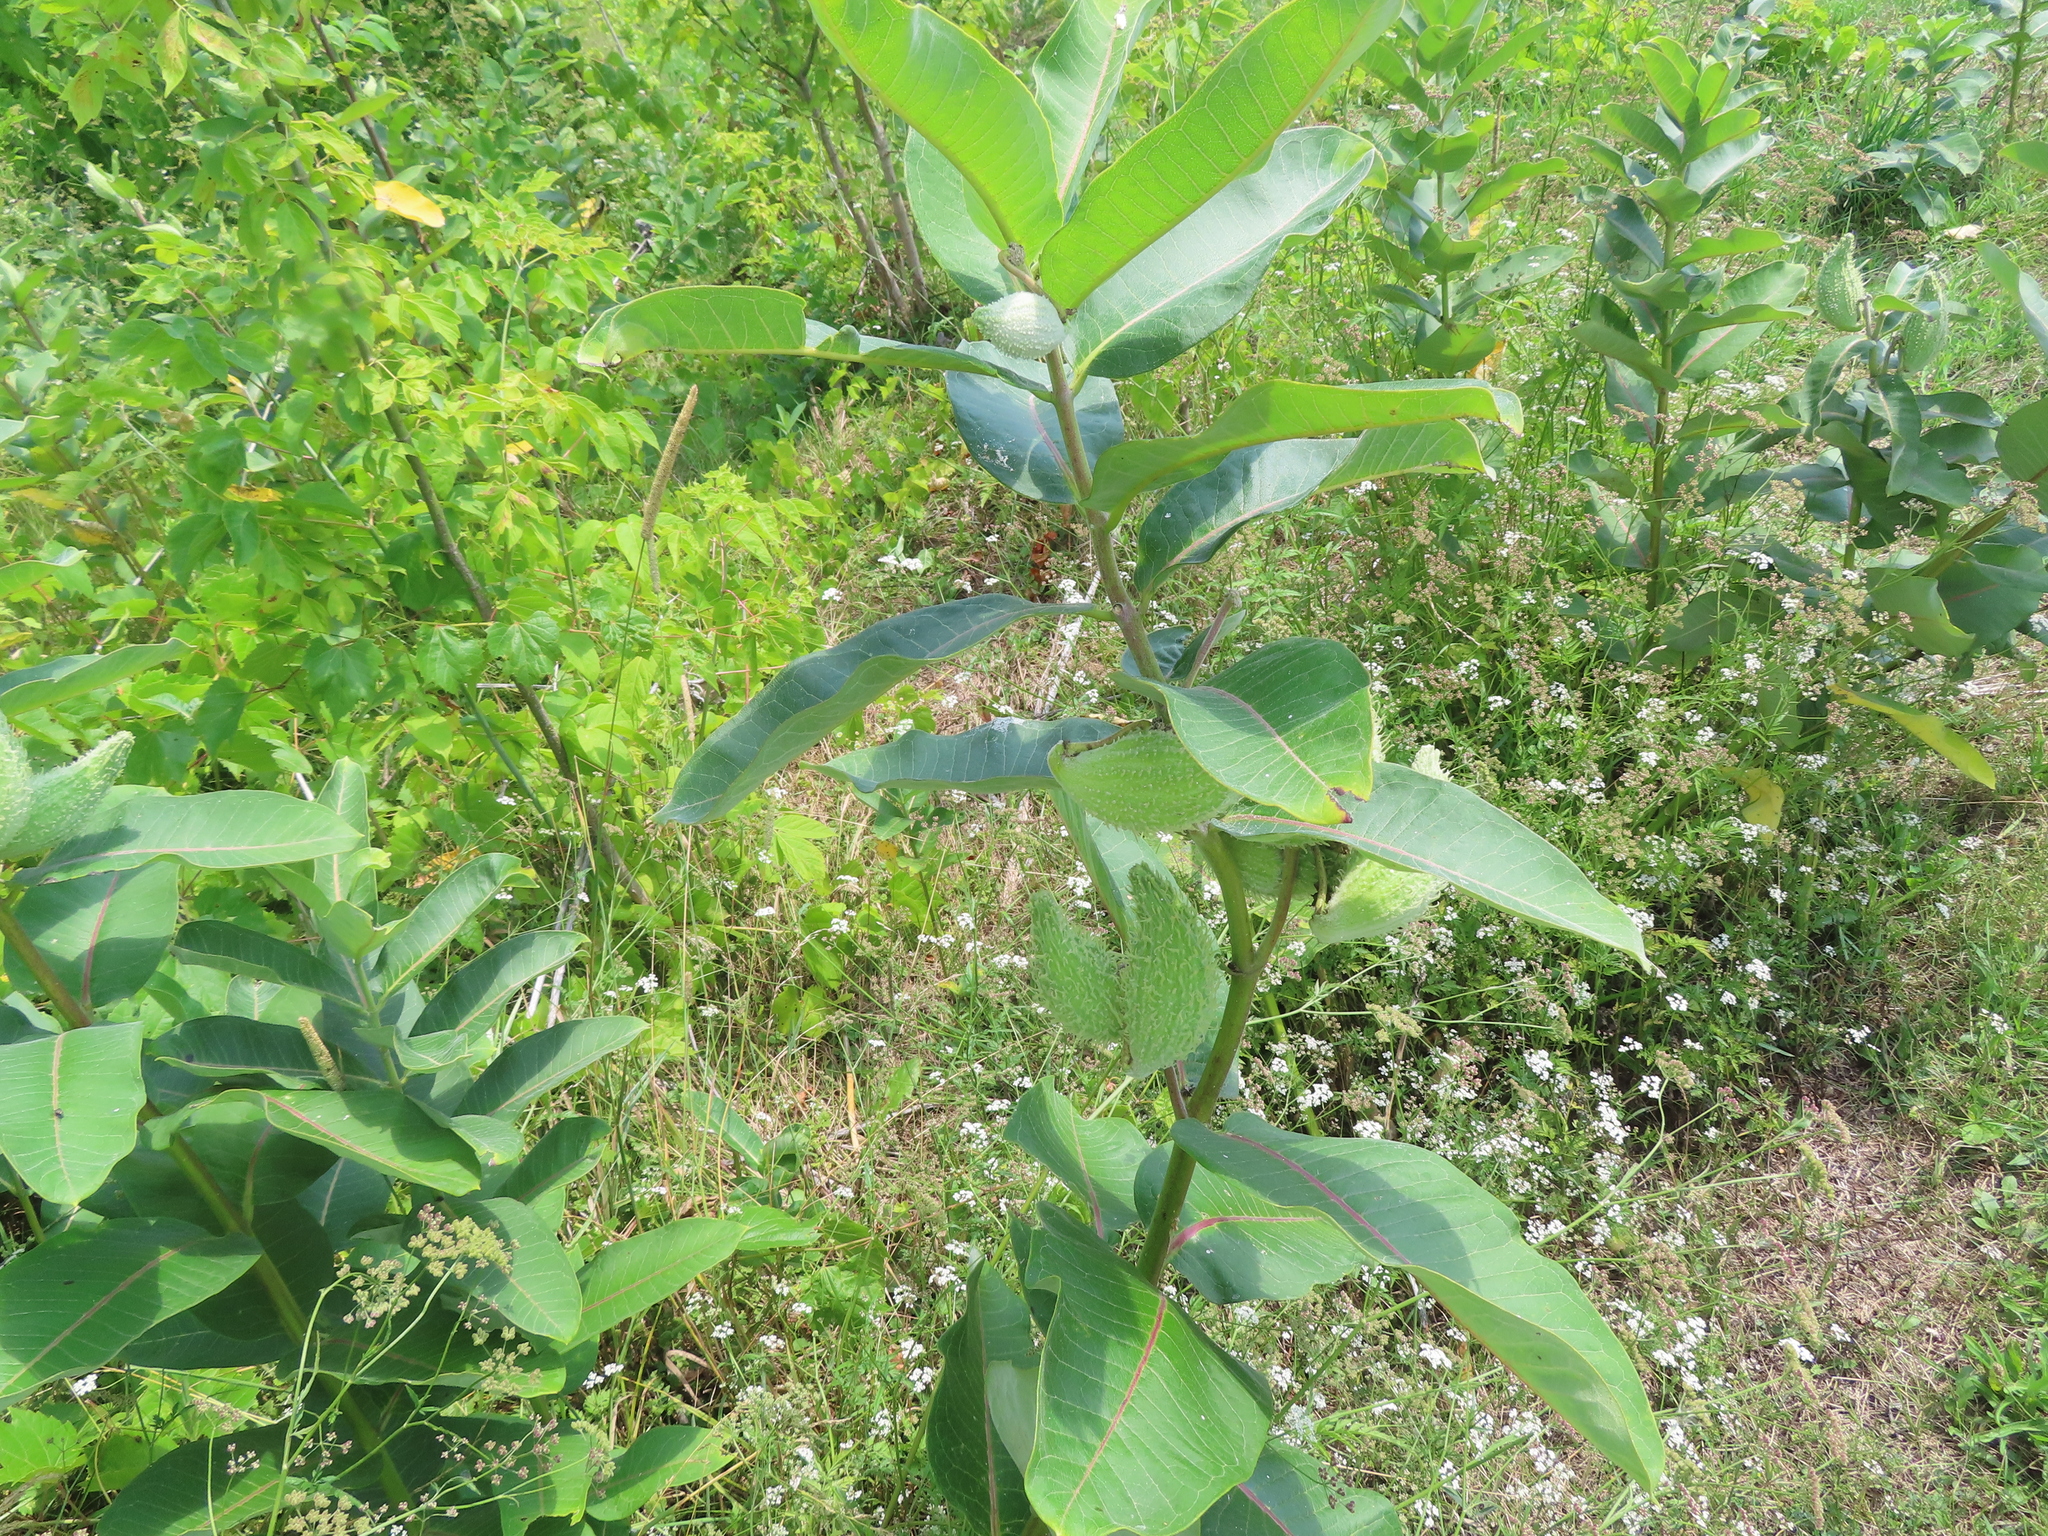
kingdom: Plantae
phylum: Tracheophyta
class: Magnoliopsida
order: Gentianales
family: Apocynaceae
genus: Asclepias
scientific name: Asclepias syriaca
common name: Common milkweed
